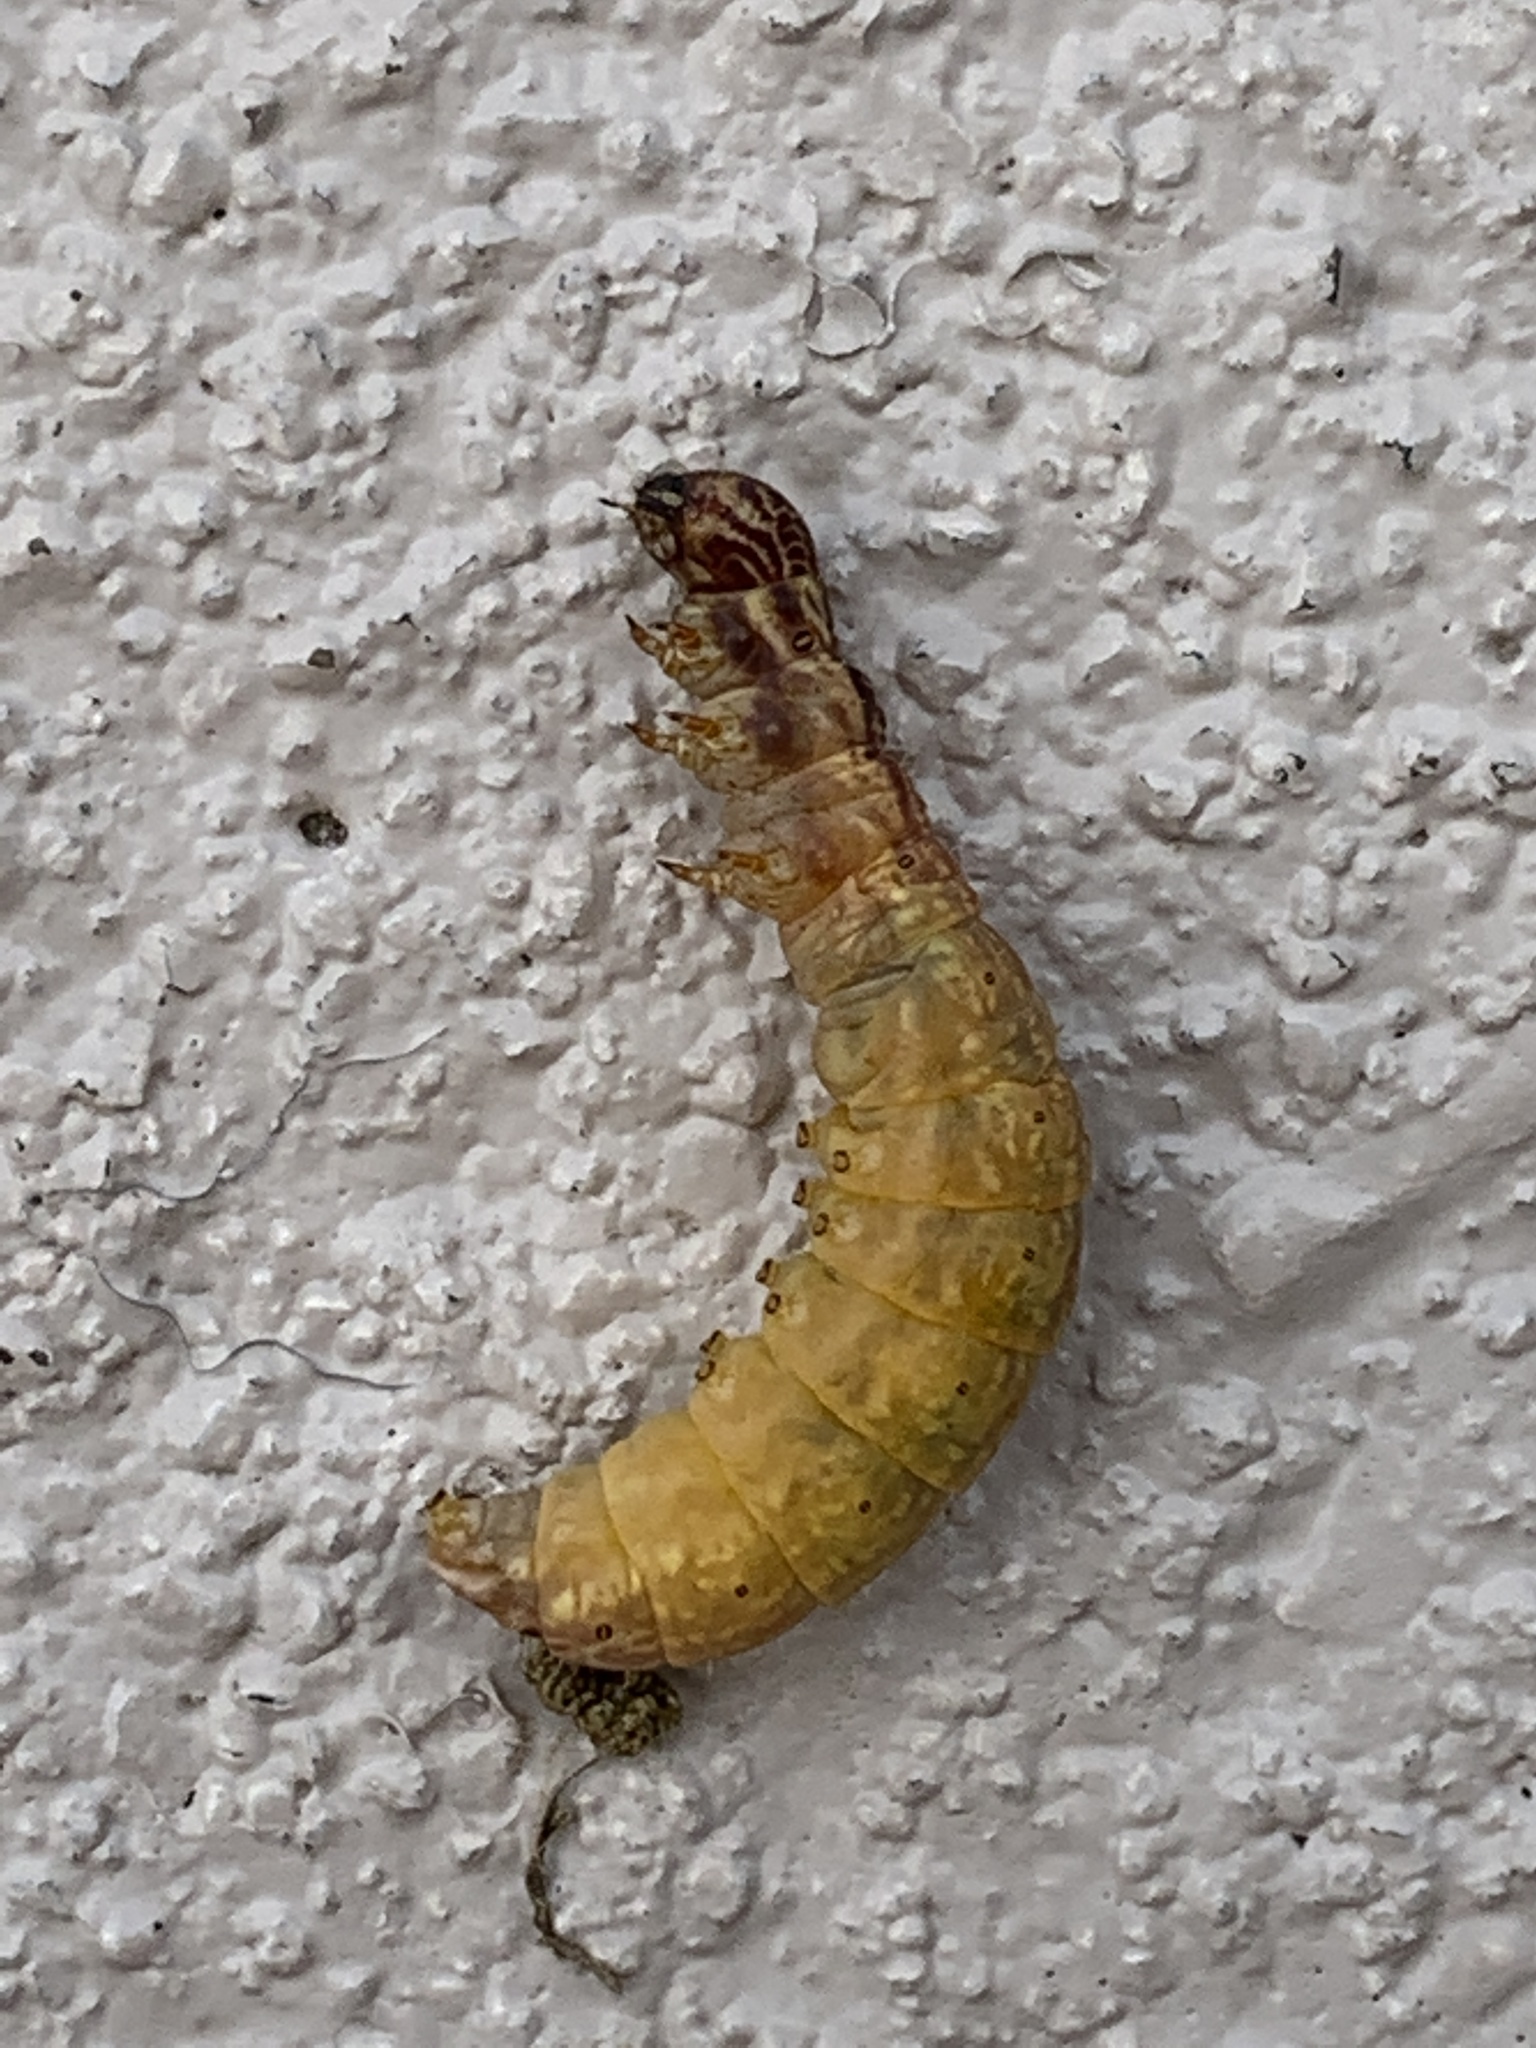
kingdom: Animalia
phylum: Arthropoda
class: Insecta
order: Lepidoptera
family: Mimallonidae
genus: Lacosoma
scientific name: Lacosoma chiridota
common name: Scalloped sack-bearer moth
